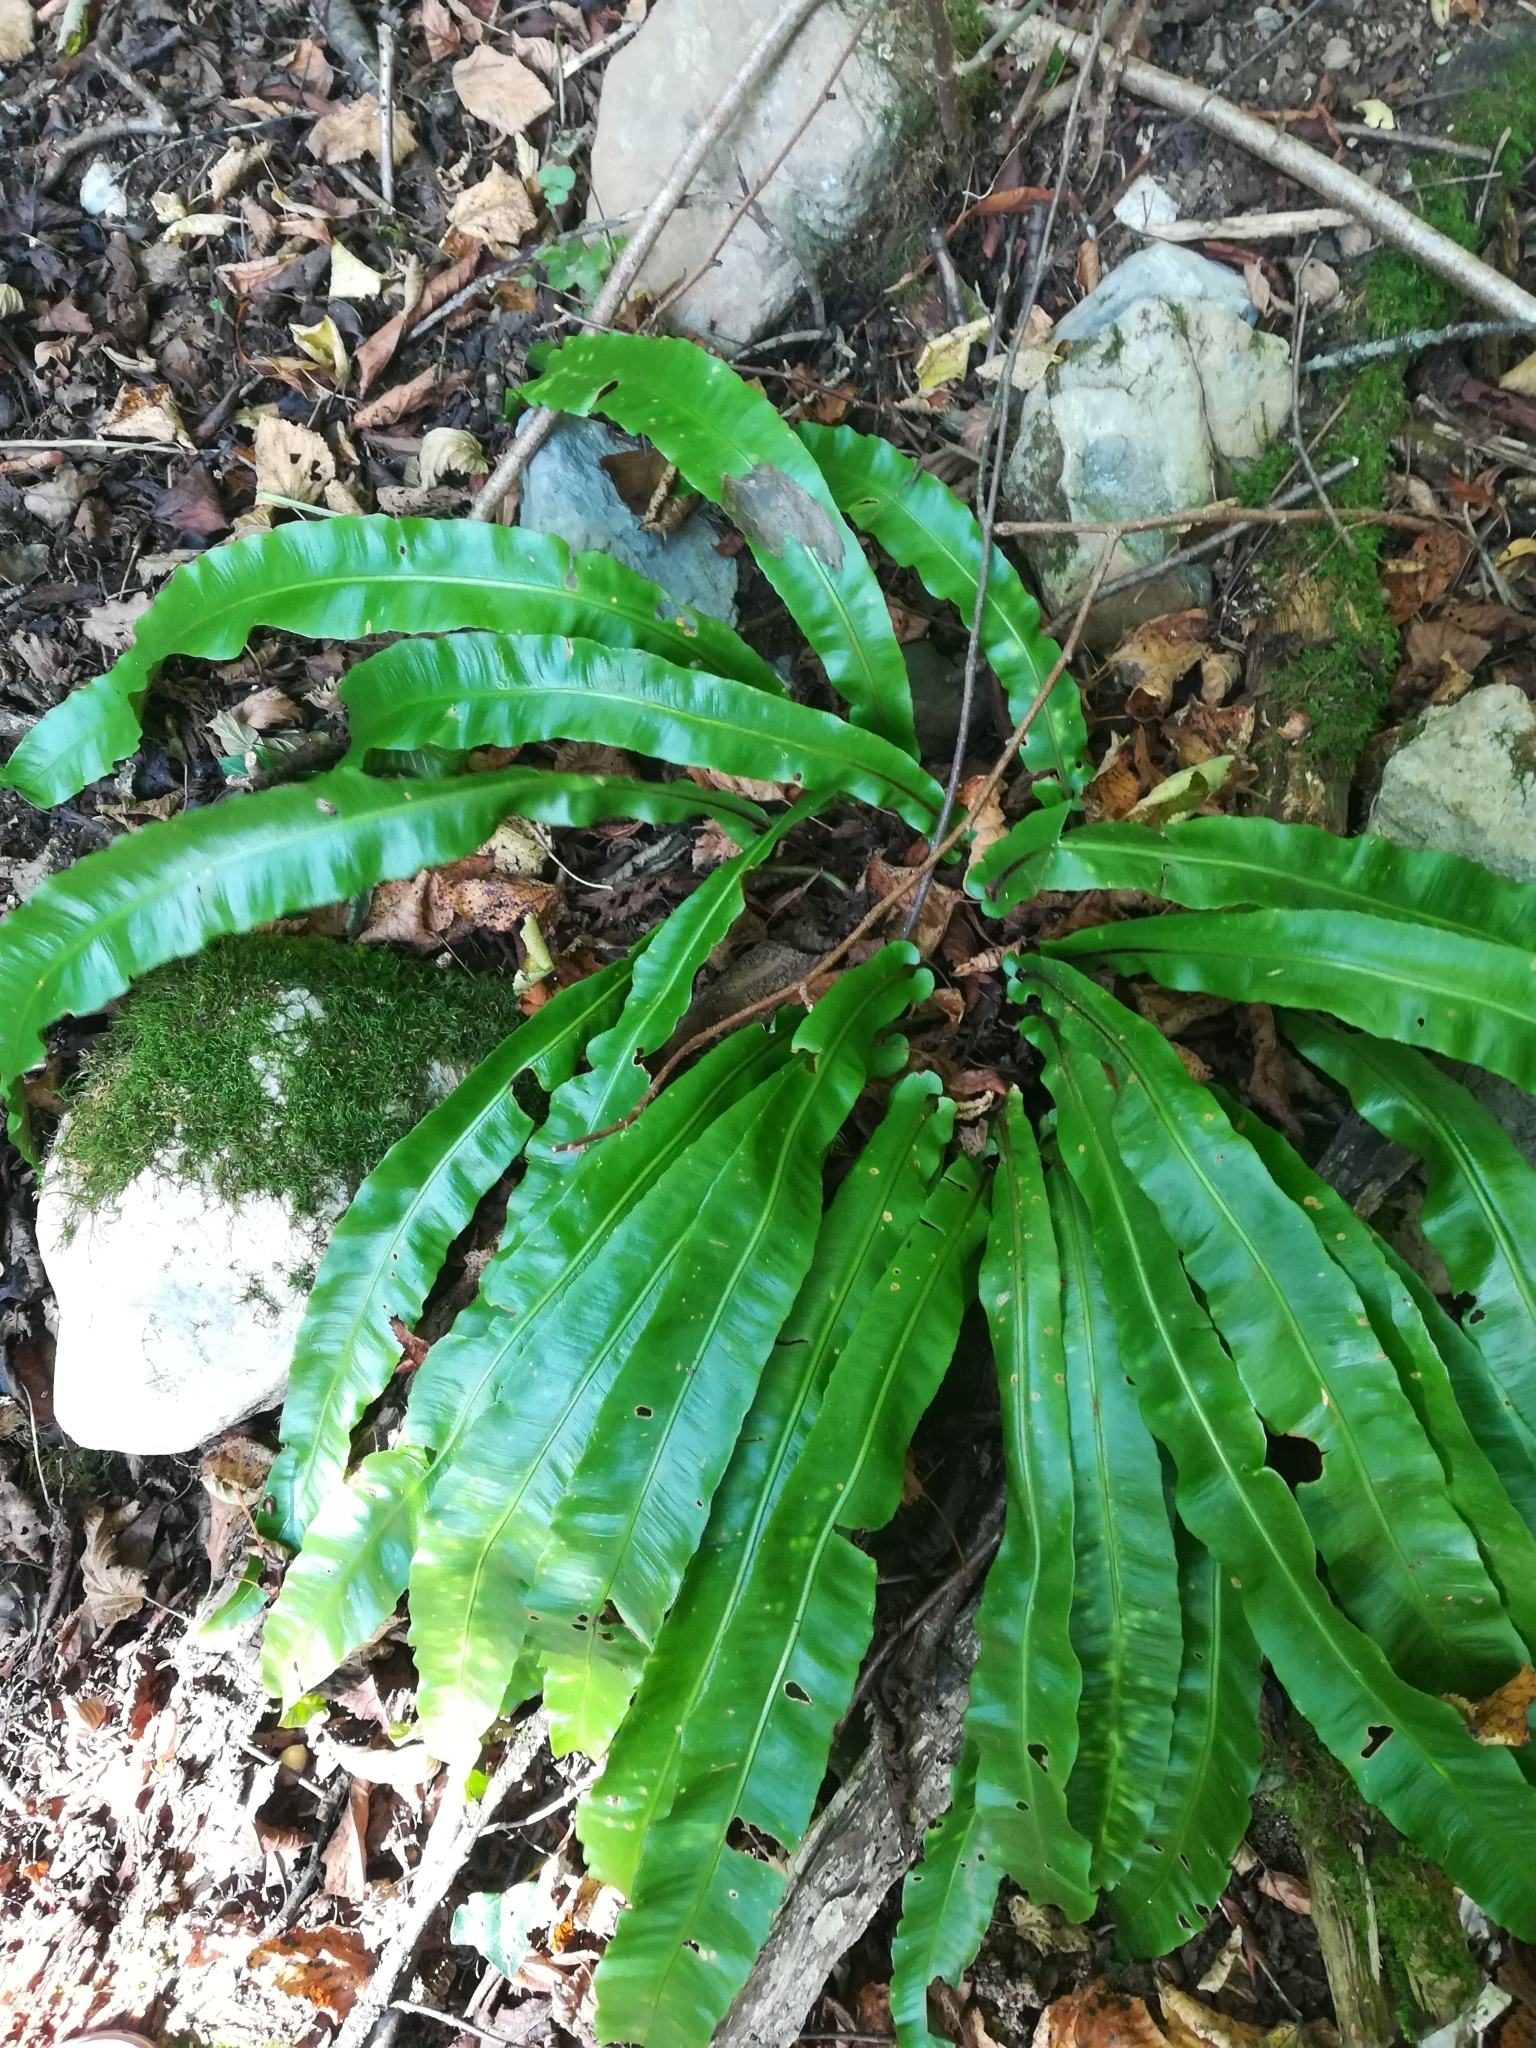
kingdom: Plantae
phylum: Tracheophyta
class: Polypodiopsida
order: Polypodiales
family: Aspleniaceae
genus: Asplenium
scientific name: Asplenium scolopendrium
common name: Hart's-tongue fern
